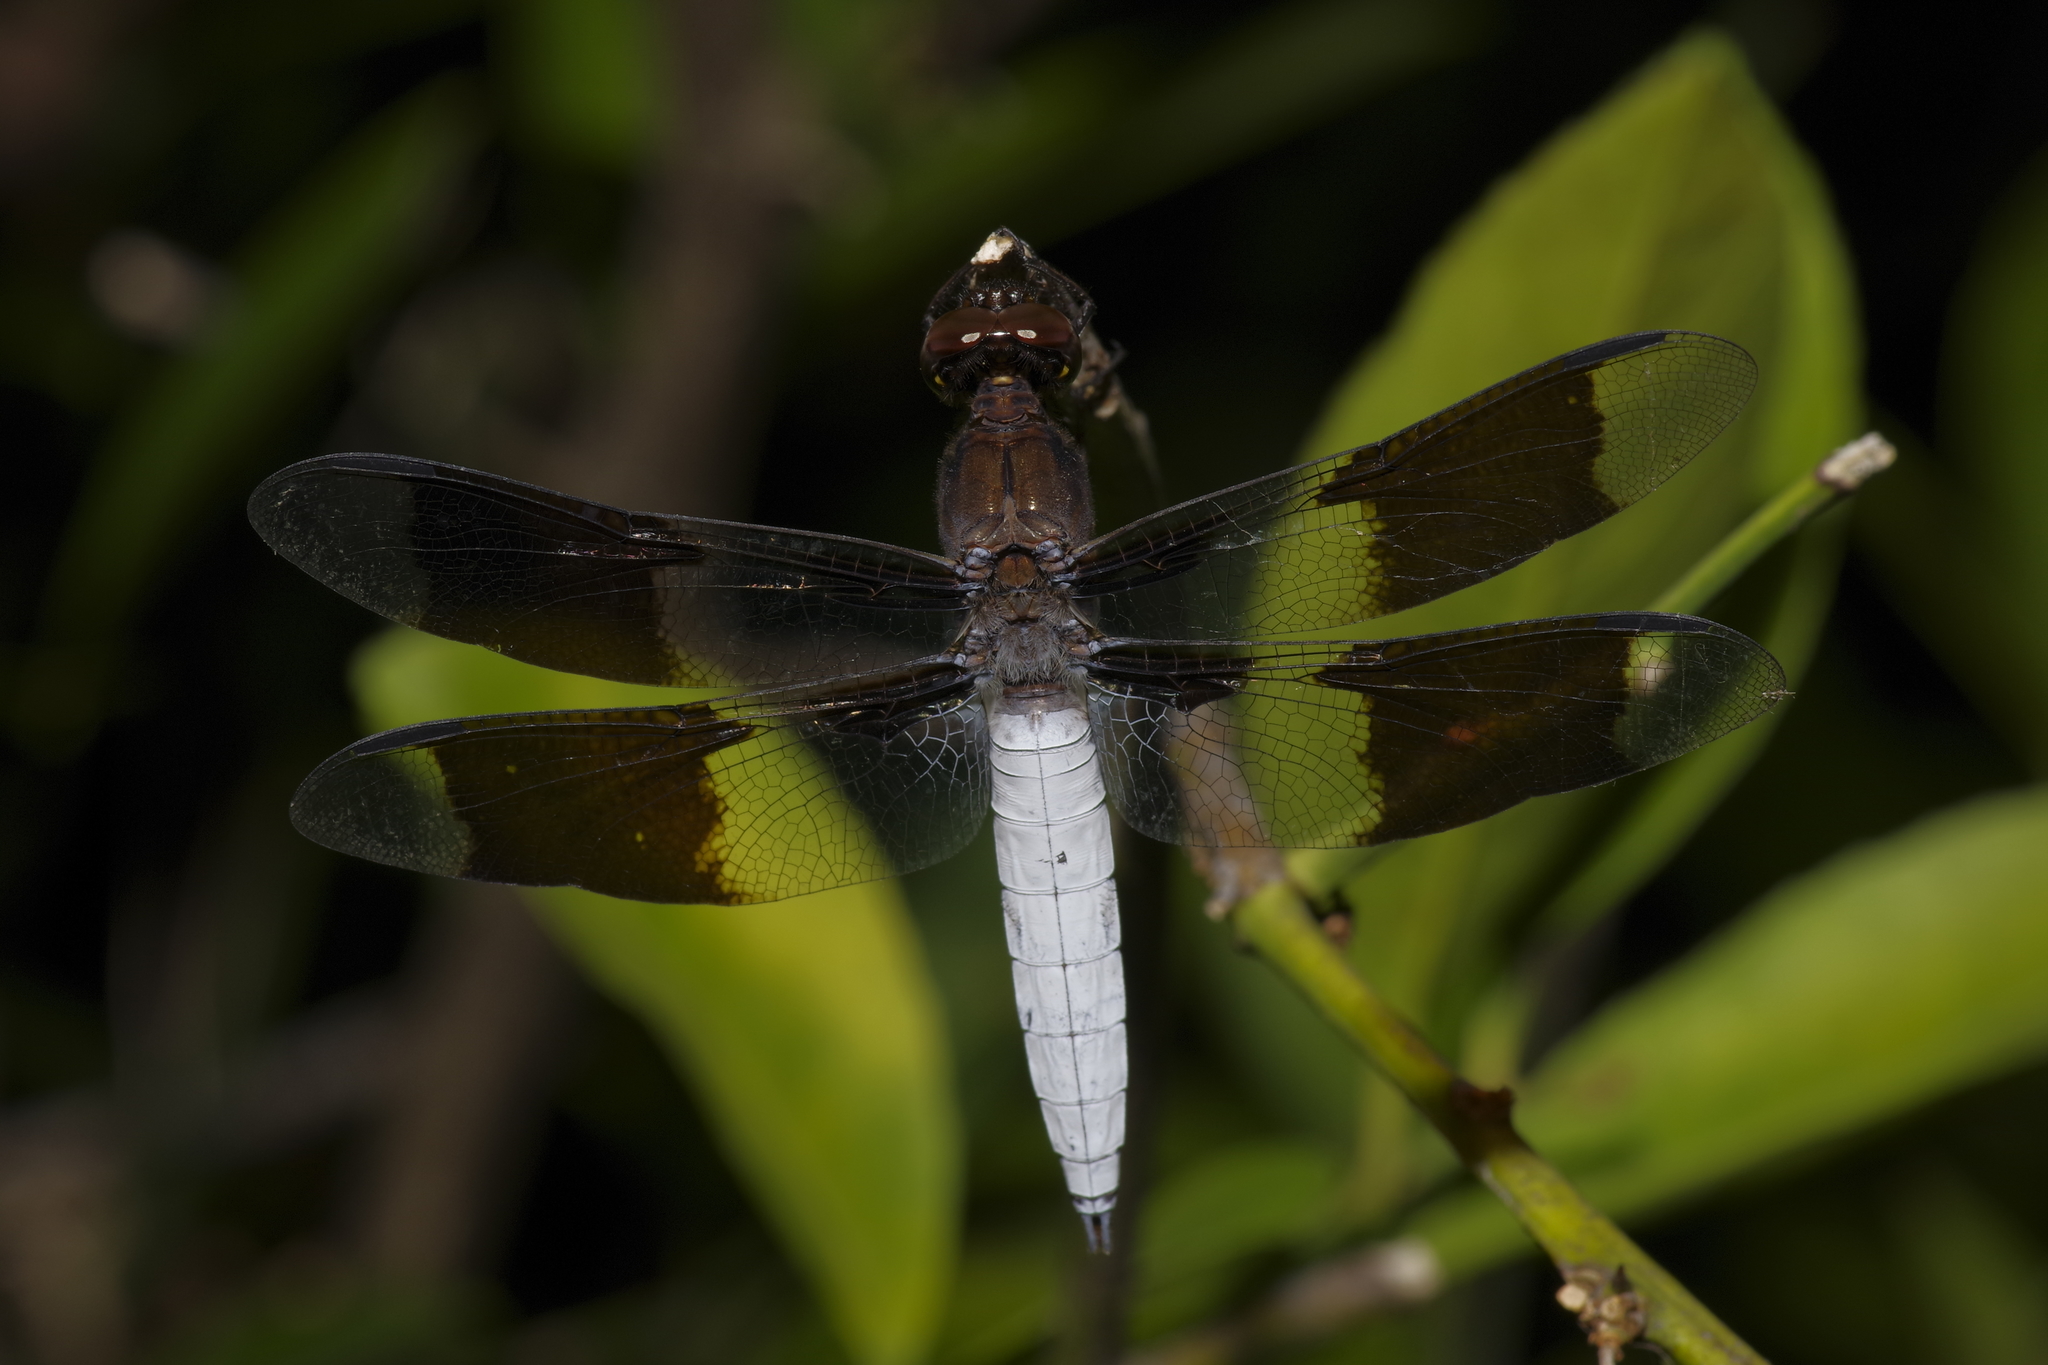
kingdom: Animalia
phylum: Arthropoda
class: Insecta
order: Odonata
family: Libellulidae
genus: Plathemis
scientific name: Plathemis lydia
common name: Common whitetail
